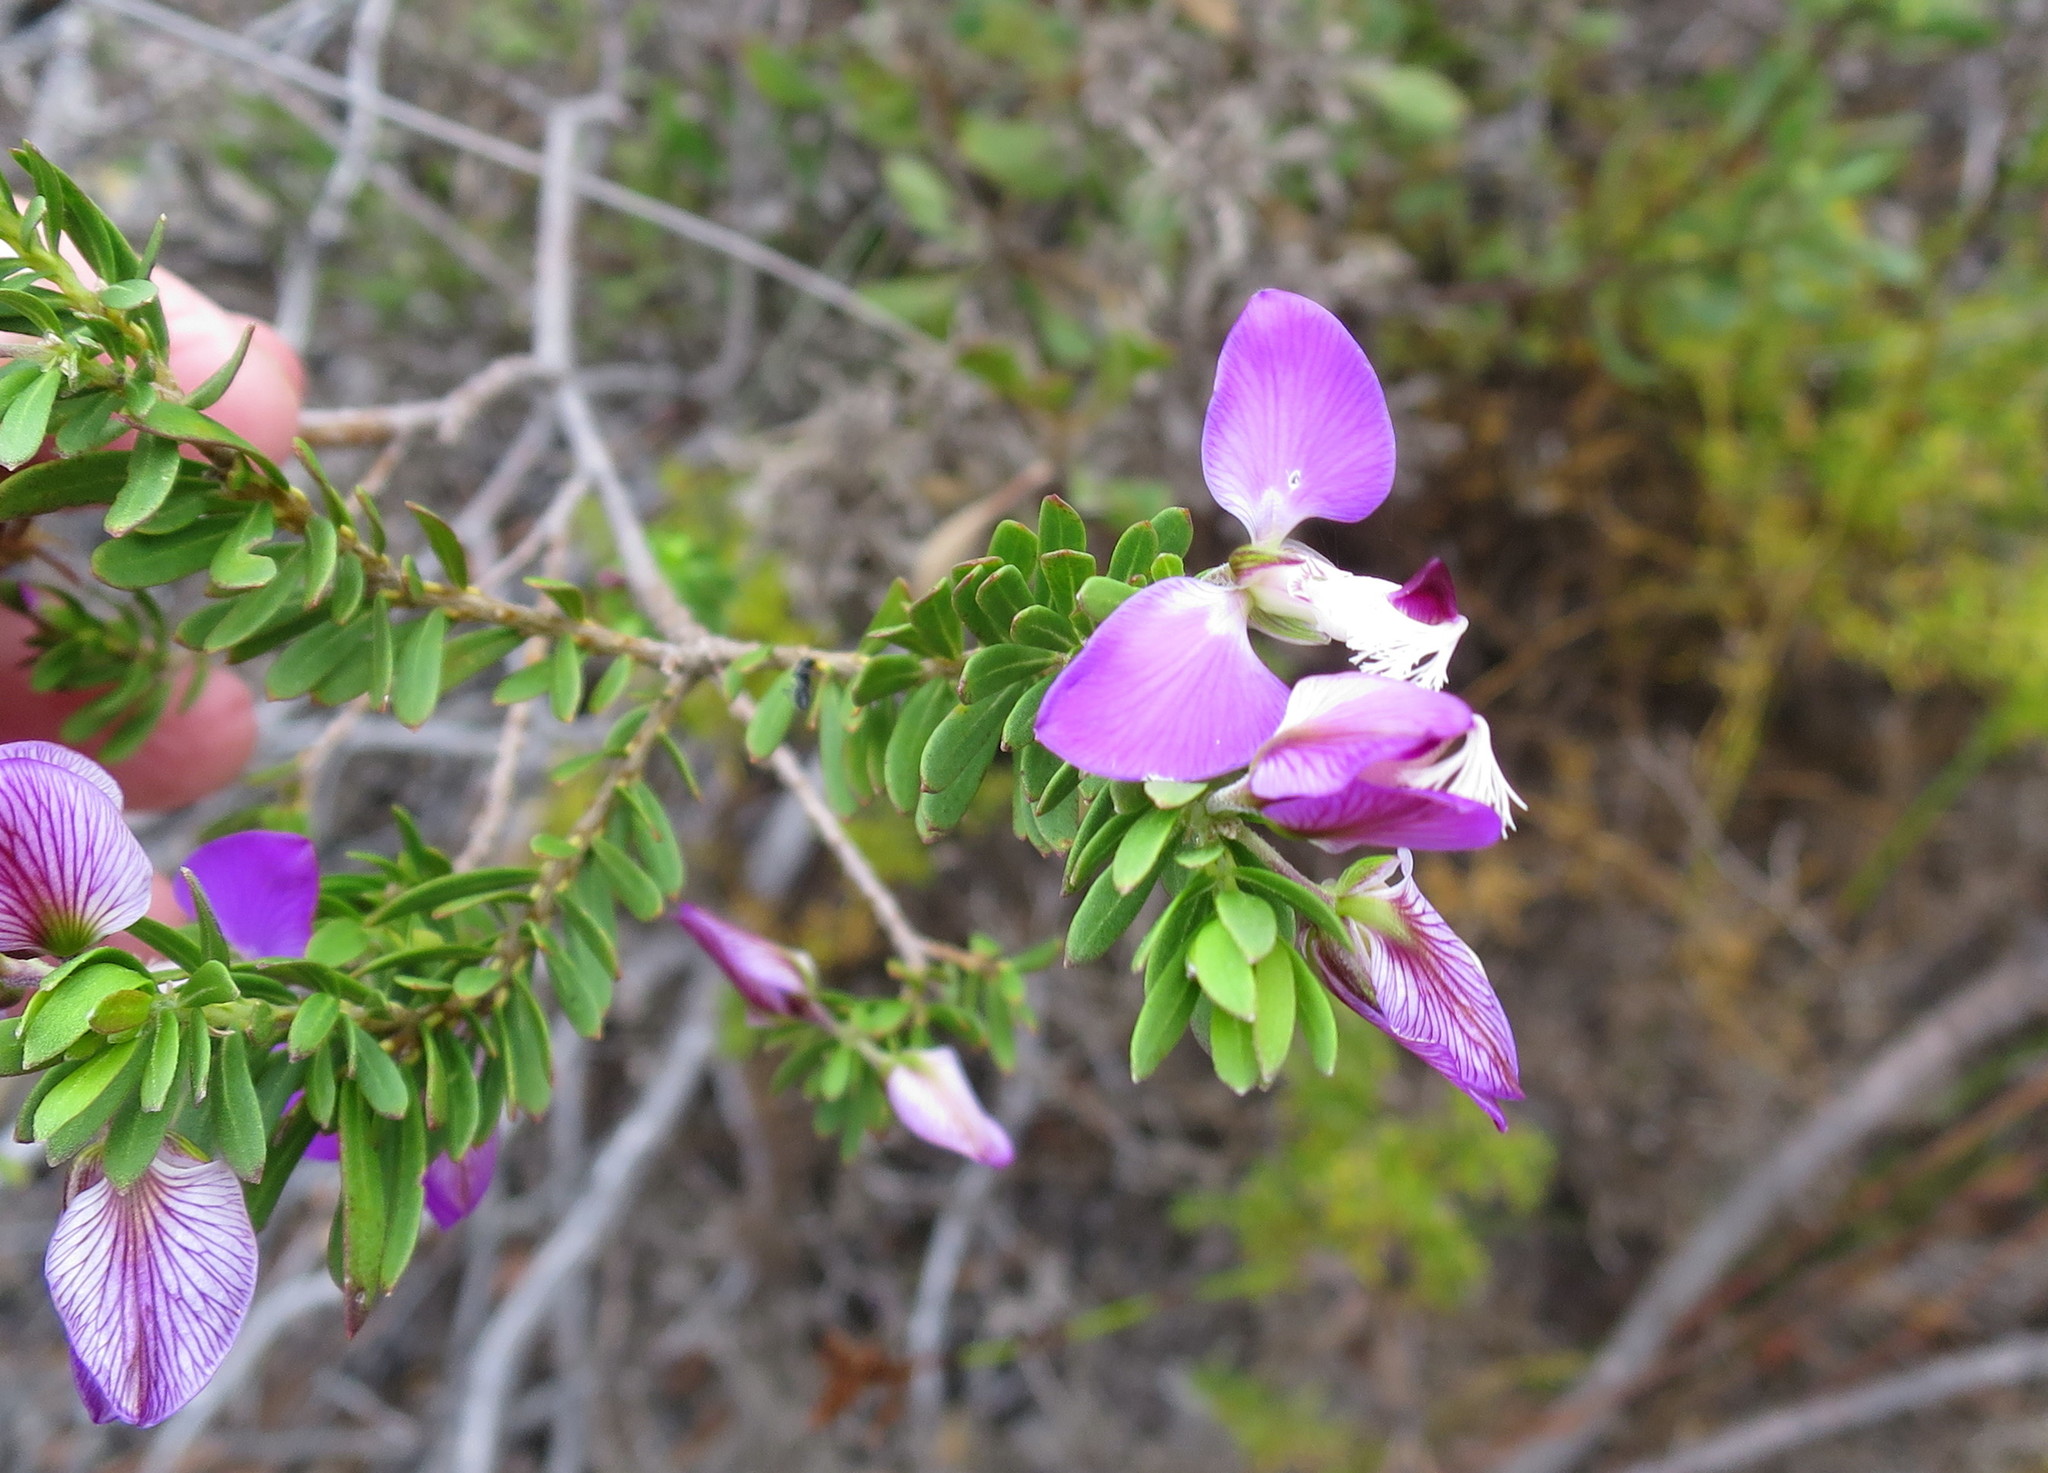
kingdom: Plantae
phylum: Tracheophyta
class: Magnoliopsida
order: Fabales
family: Polygalaceae
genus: Polygala
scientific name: Polygala myrtifolia
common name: Myrtle-leaf milkwort
